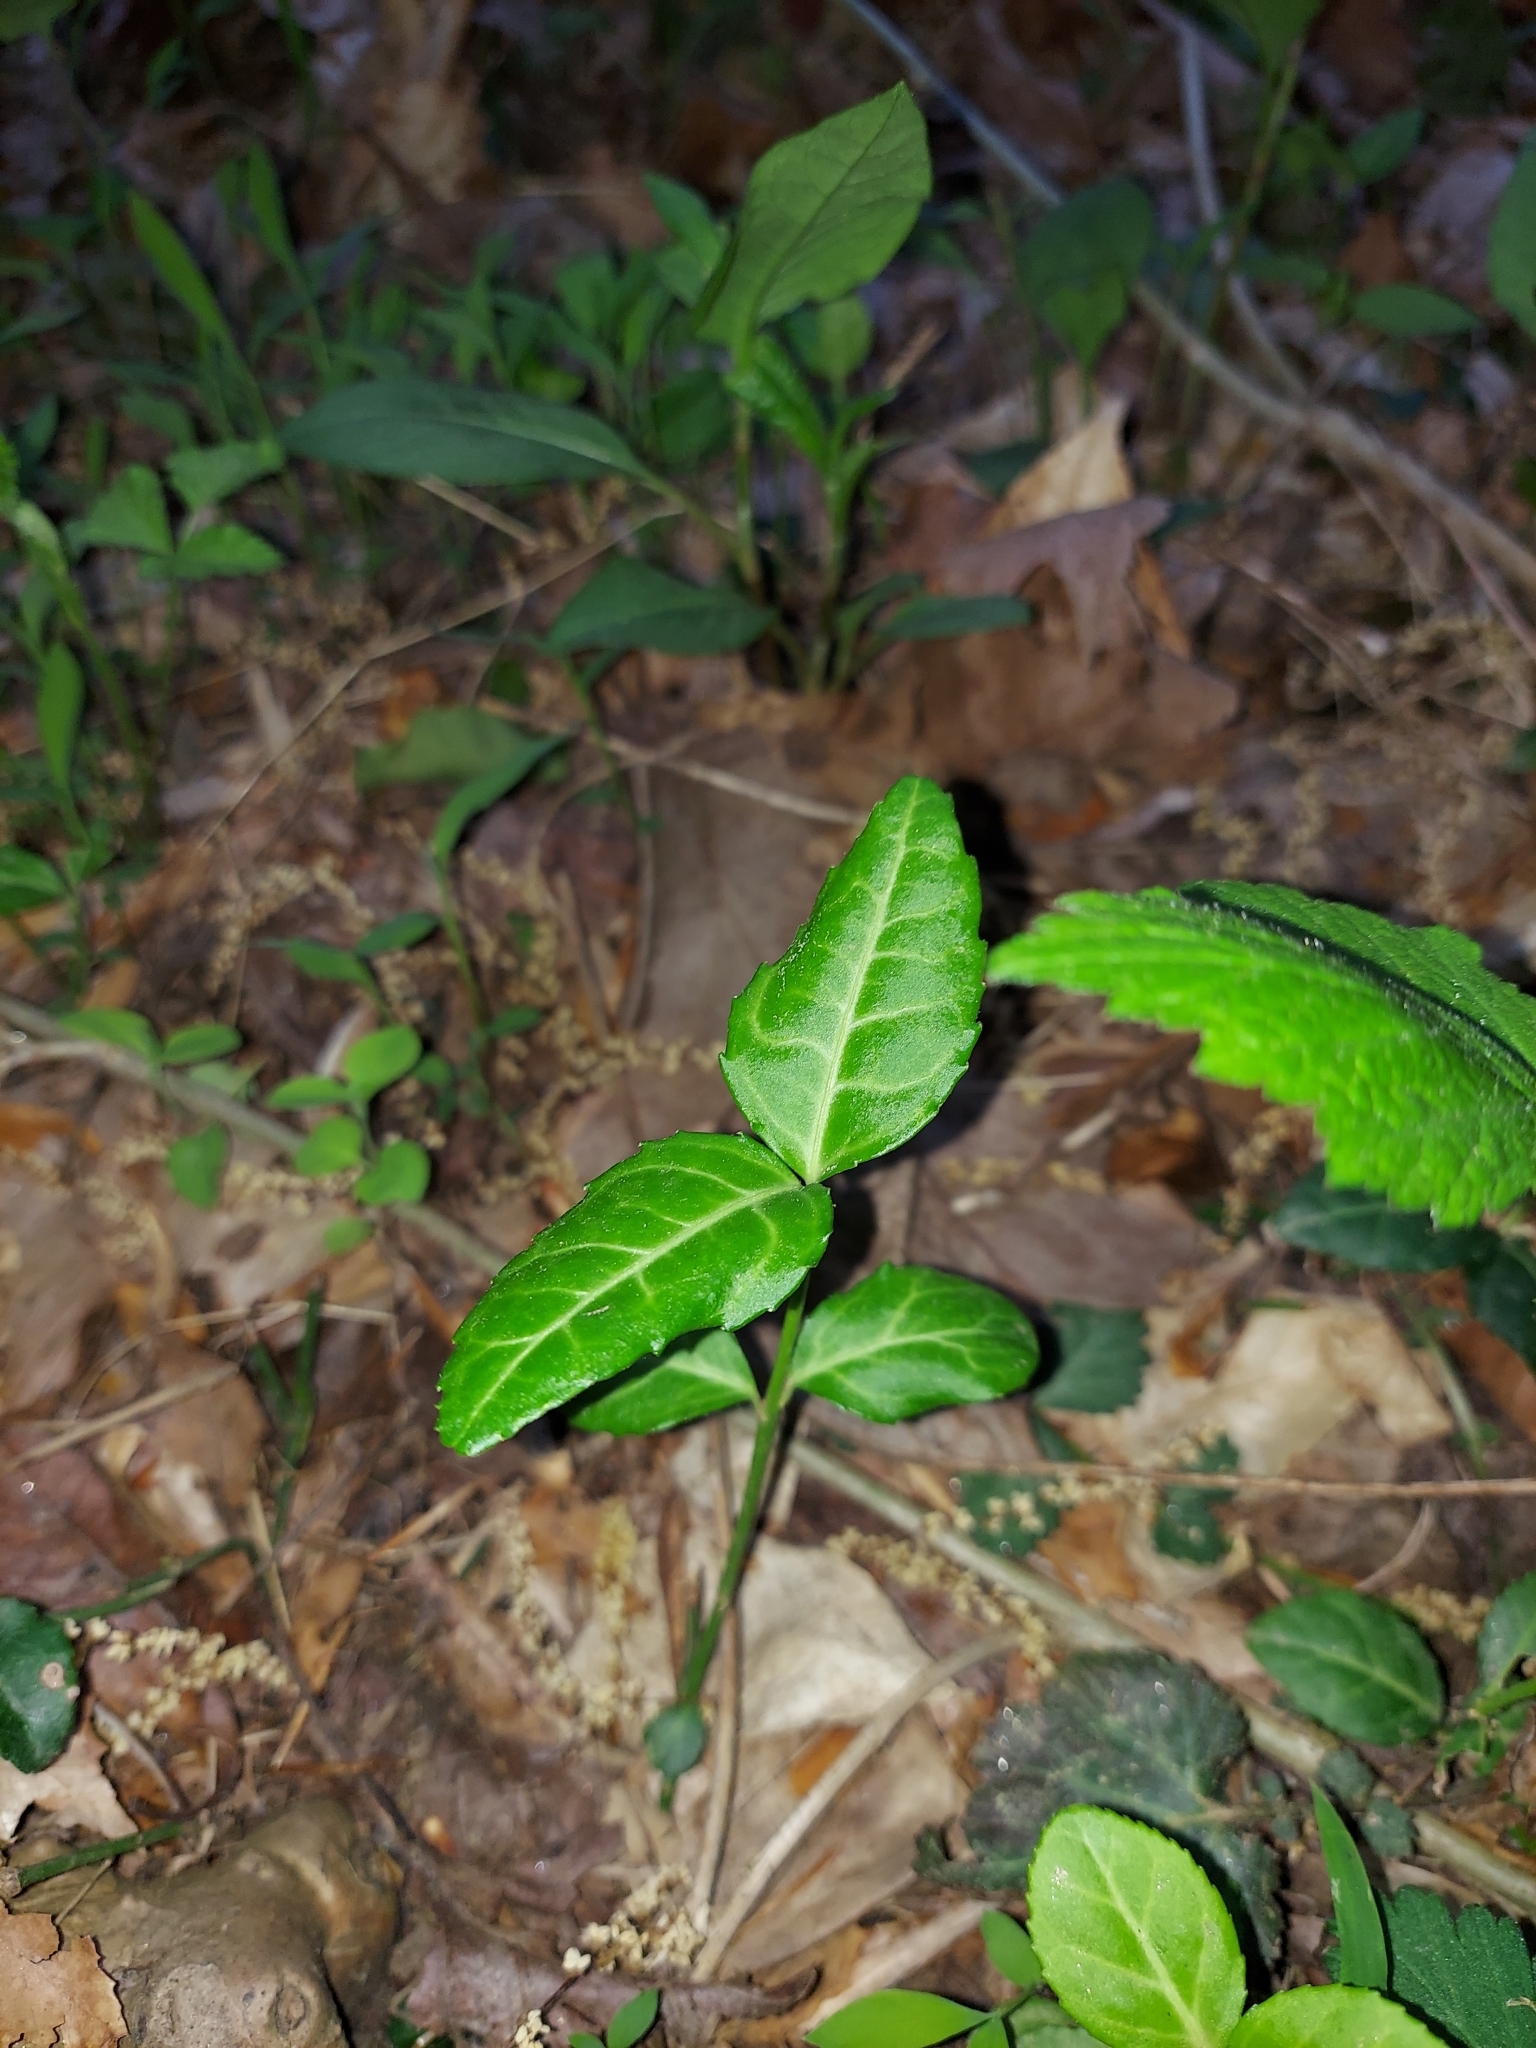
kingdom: Plantae
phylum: Tracheophyta
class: Magnoliopsida
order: Celastrales
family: Celastraceae
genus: Euonymus
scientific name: Euonymus fortunei
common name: Climbing euonymus
